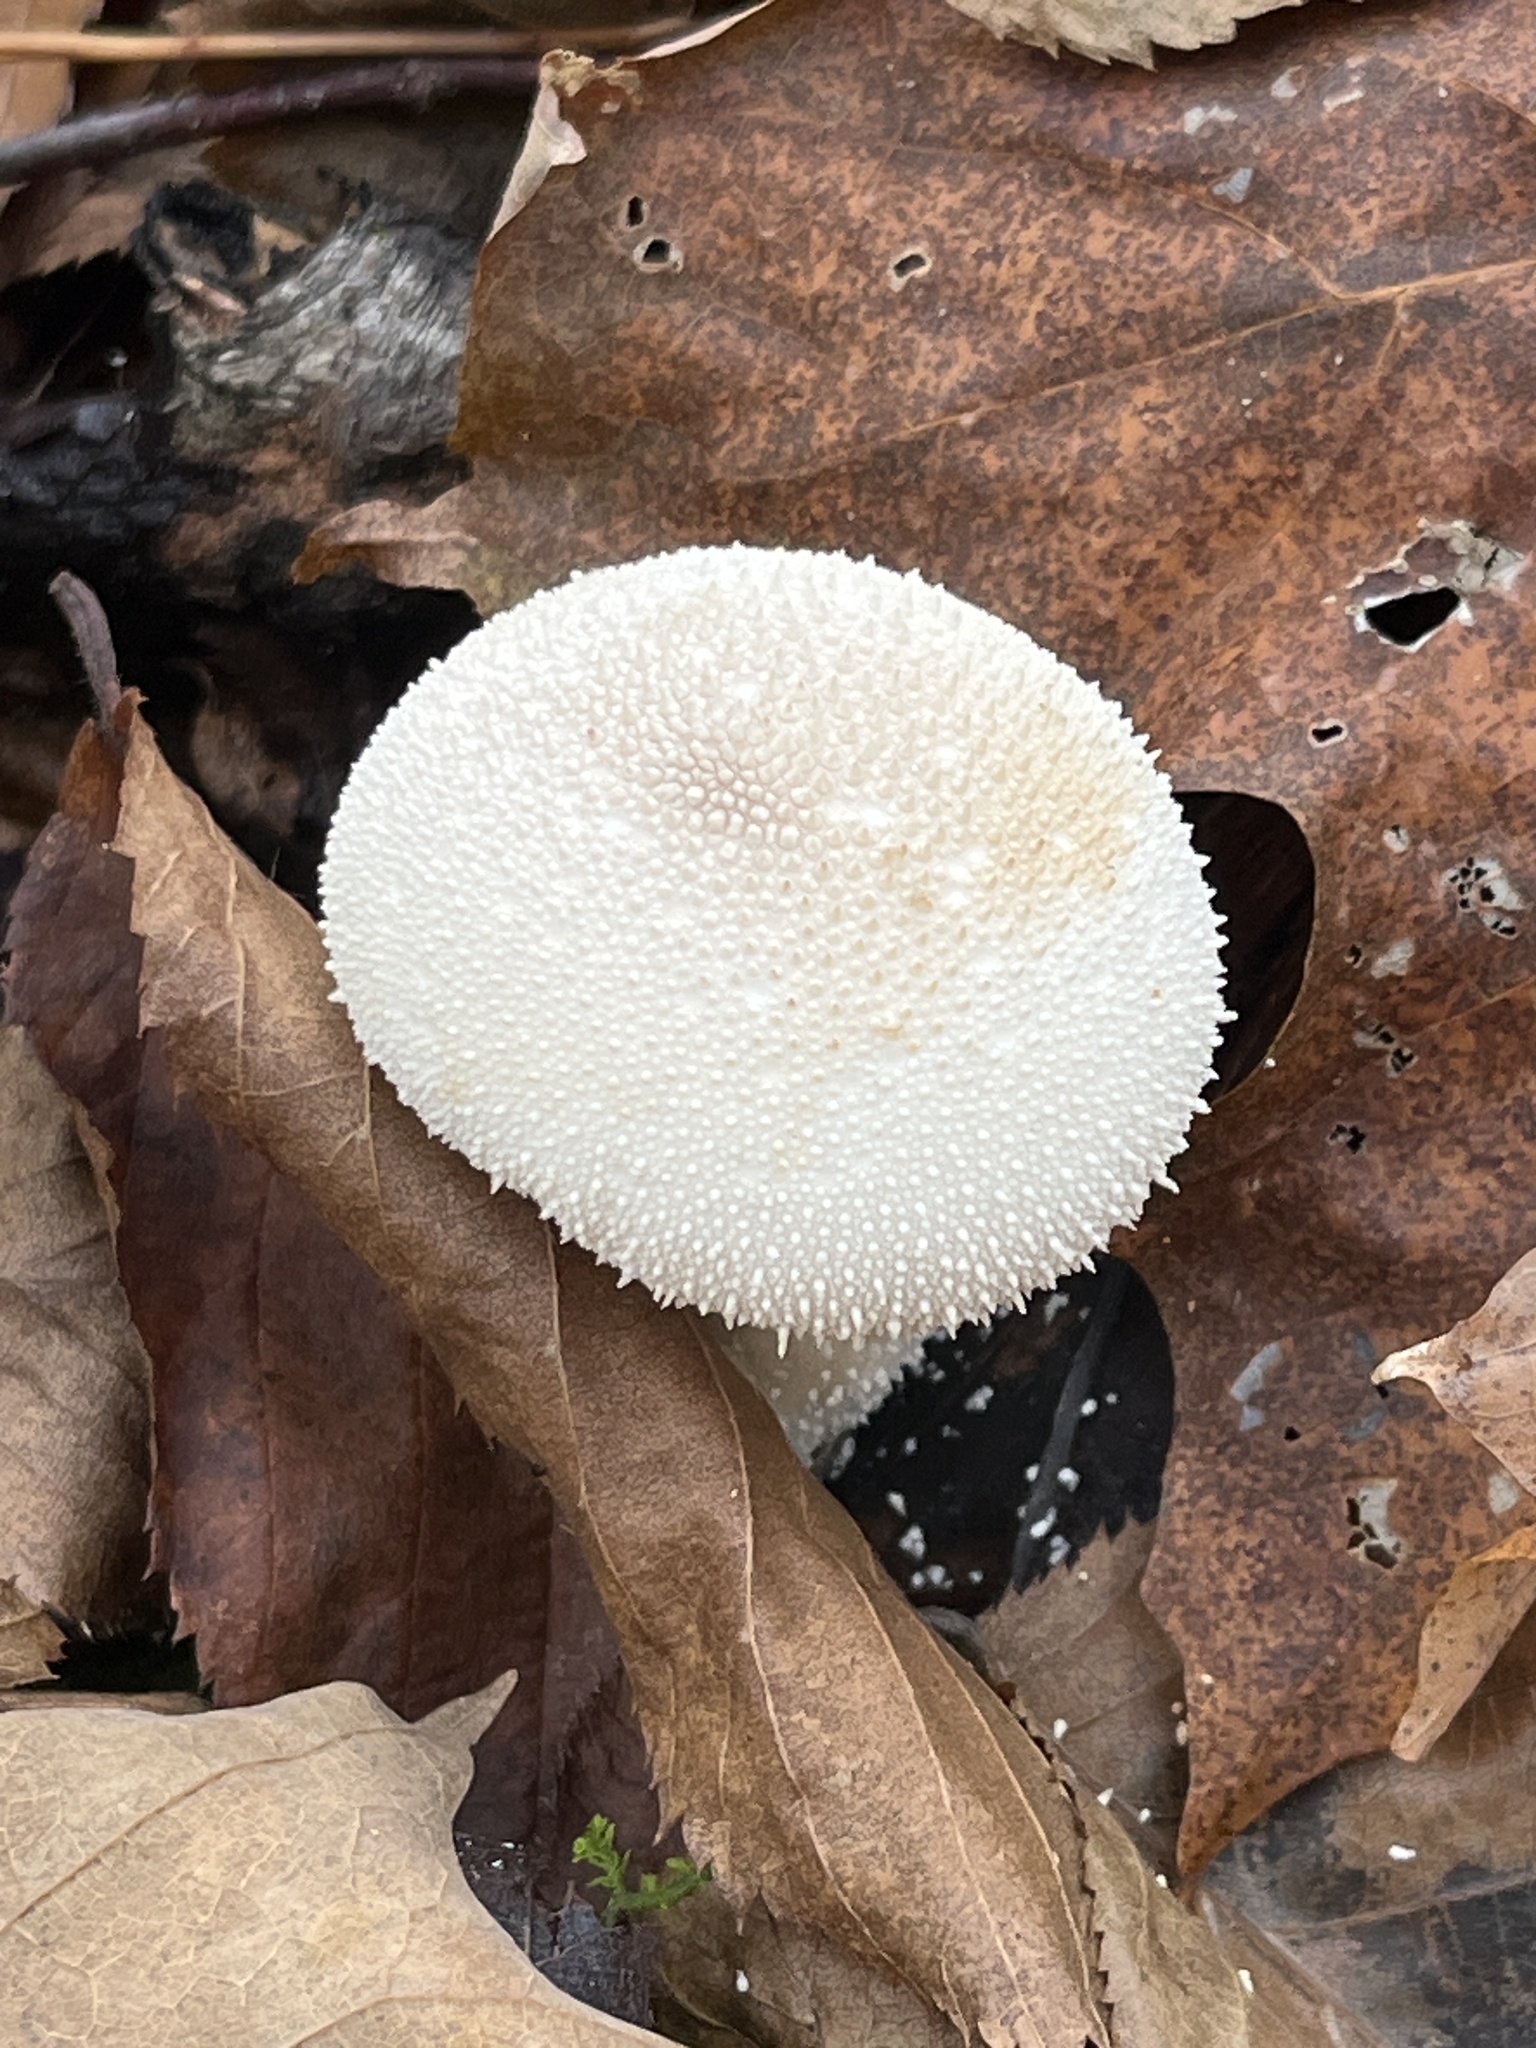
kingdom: Fungi
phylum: Basidiomycota
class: Agaricomycetes
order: Agaricales
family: Lycoperdaceae
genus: Lycoperdon
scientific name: Lycoperdon perlatum
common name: Common puffball
